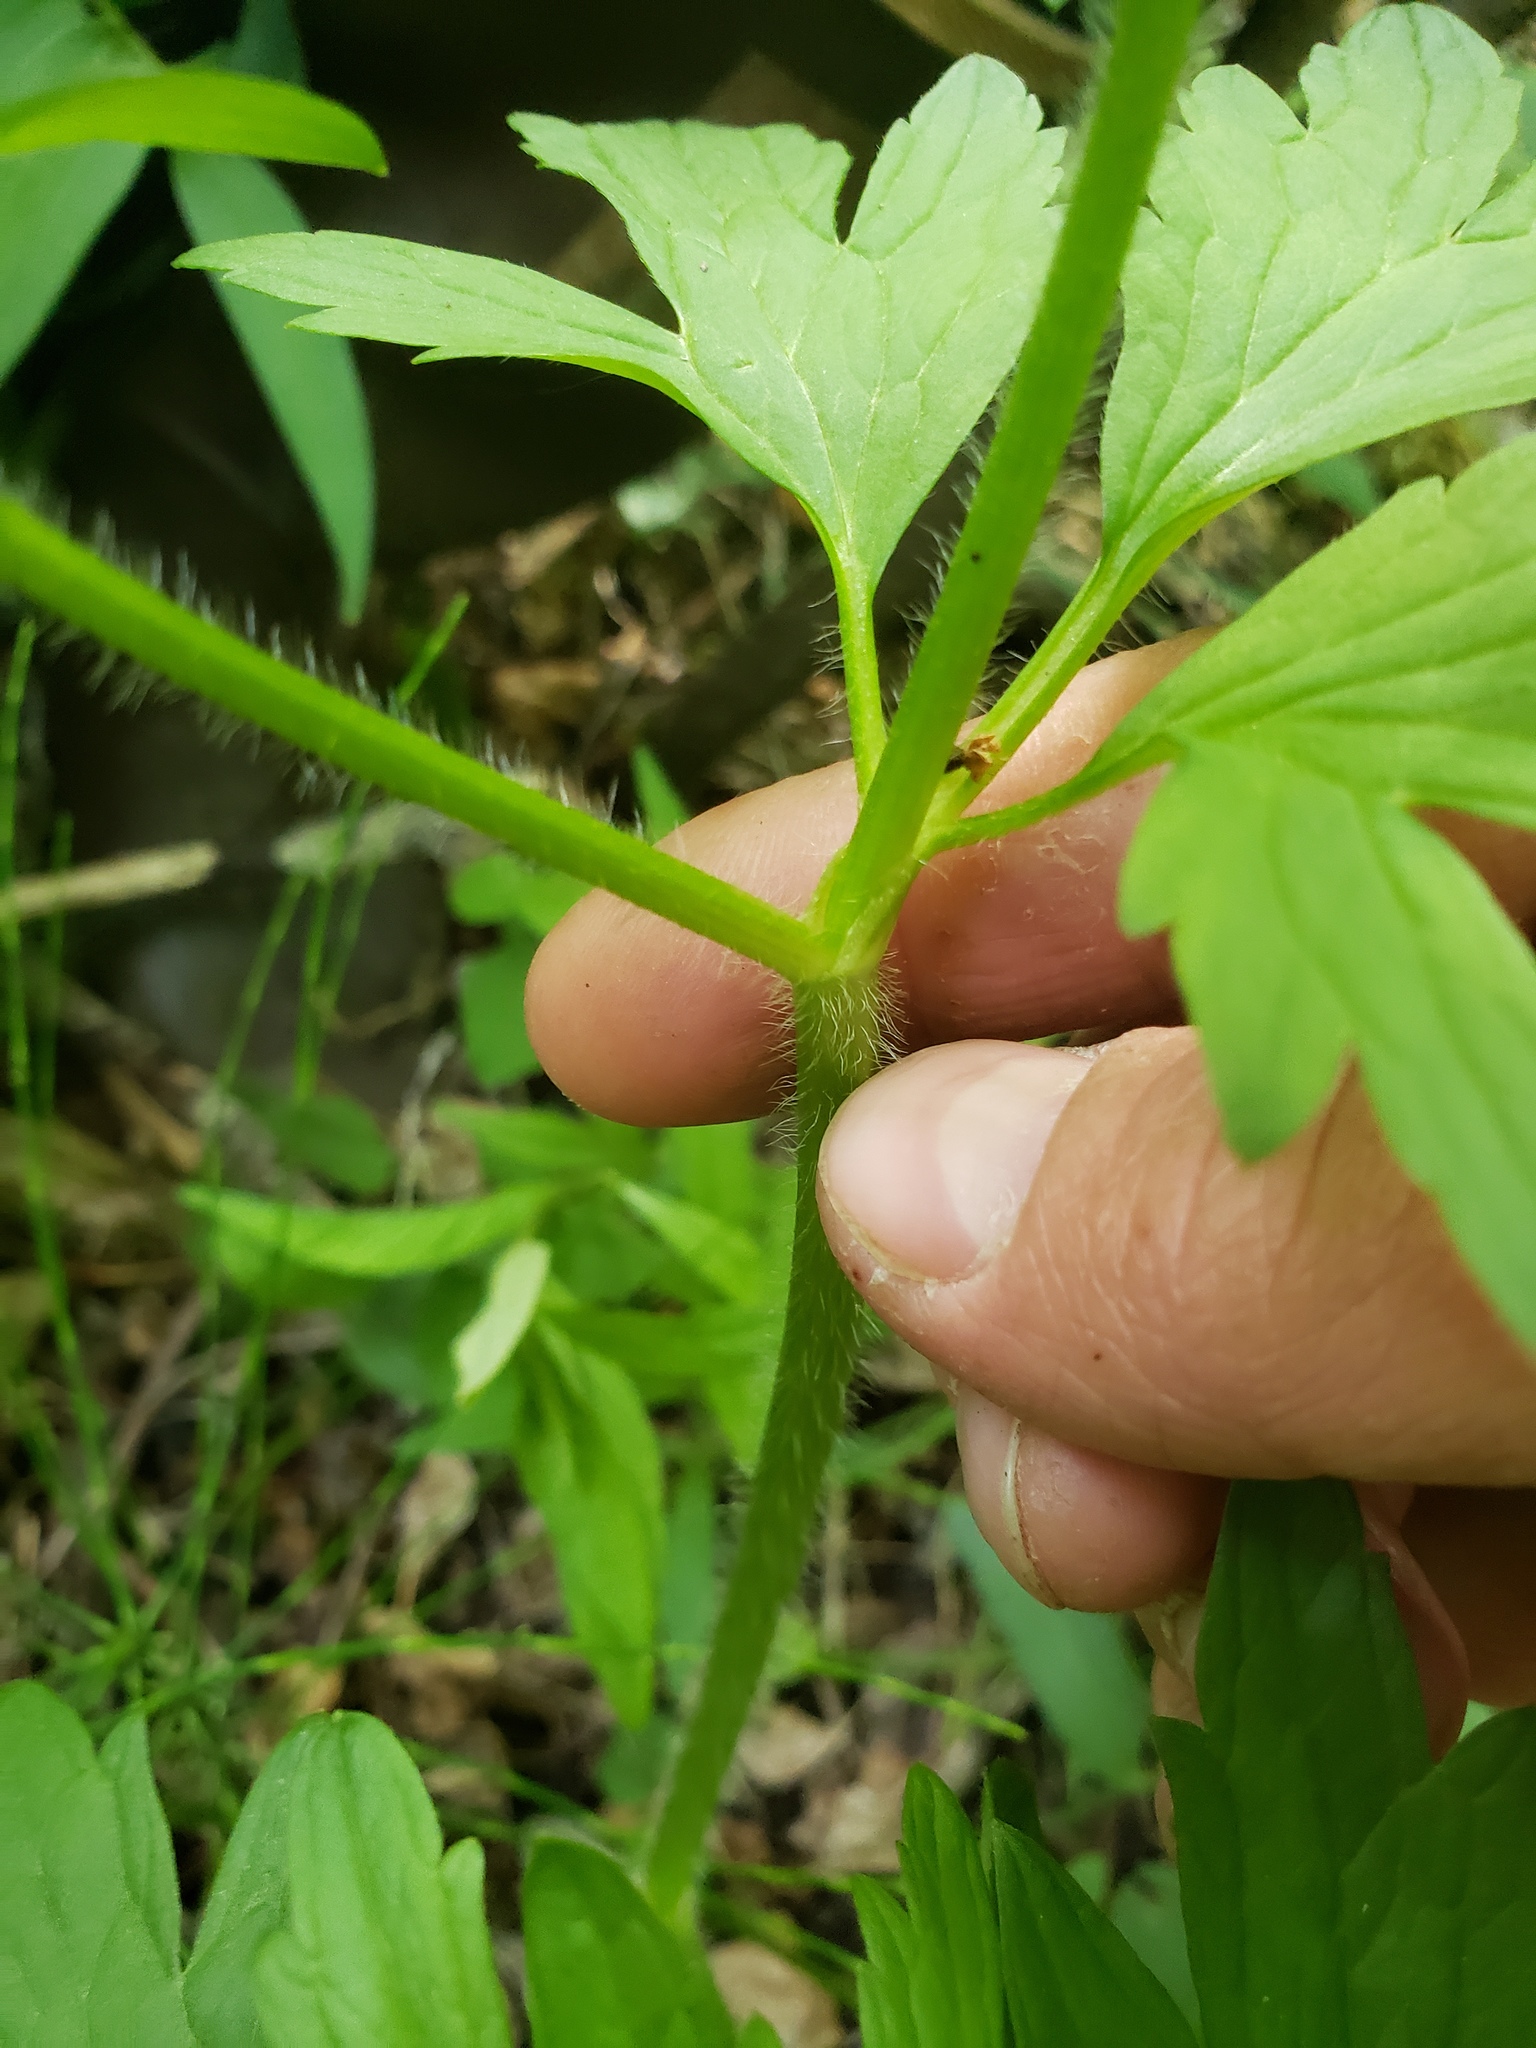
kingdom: Plantae
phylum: Tracheophyta
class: Magnoliopsida
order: Ranunculales
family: Ranunculaceae
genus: Ranunculus
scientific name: Ranunculus hispidus
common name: Bristly buttercup
